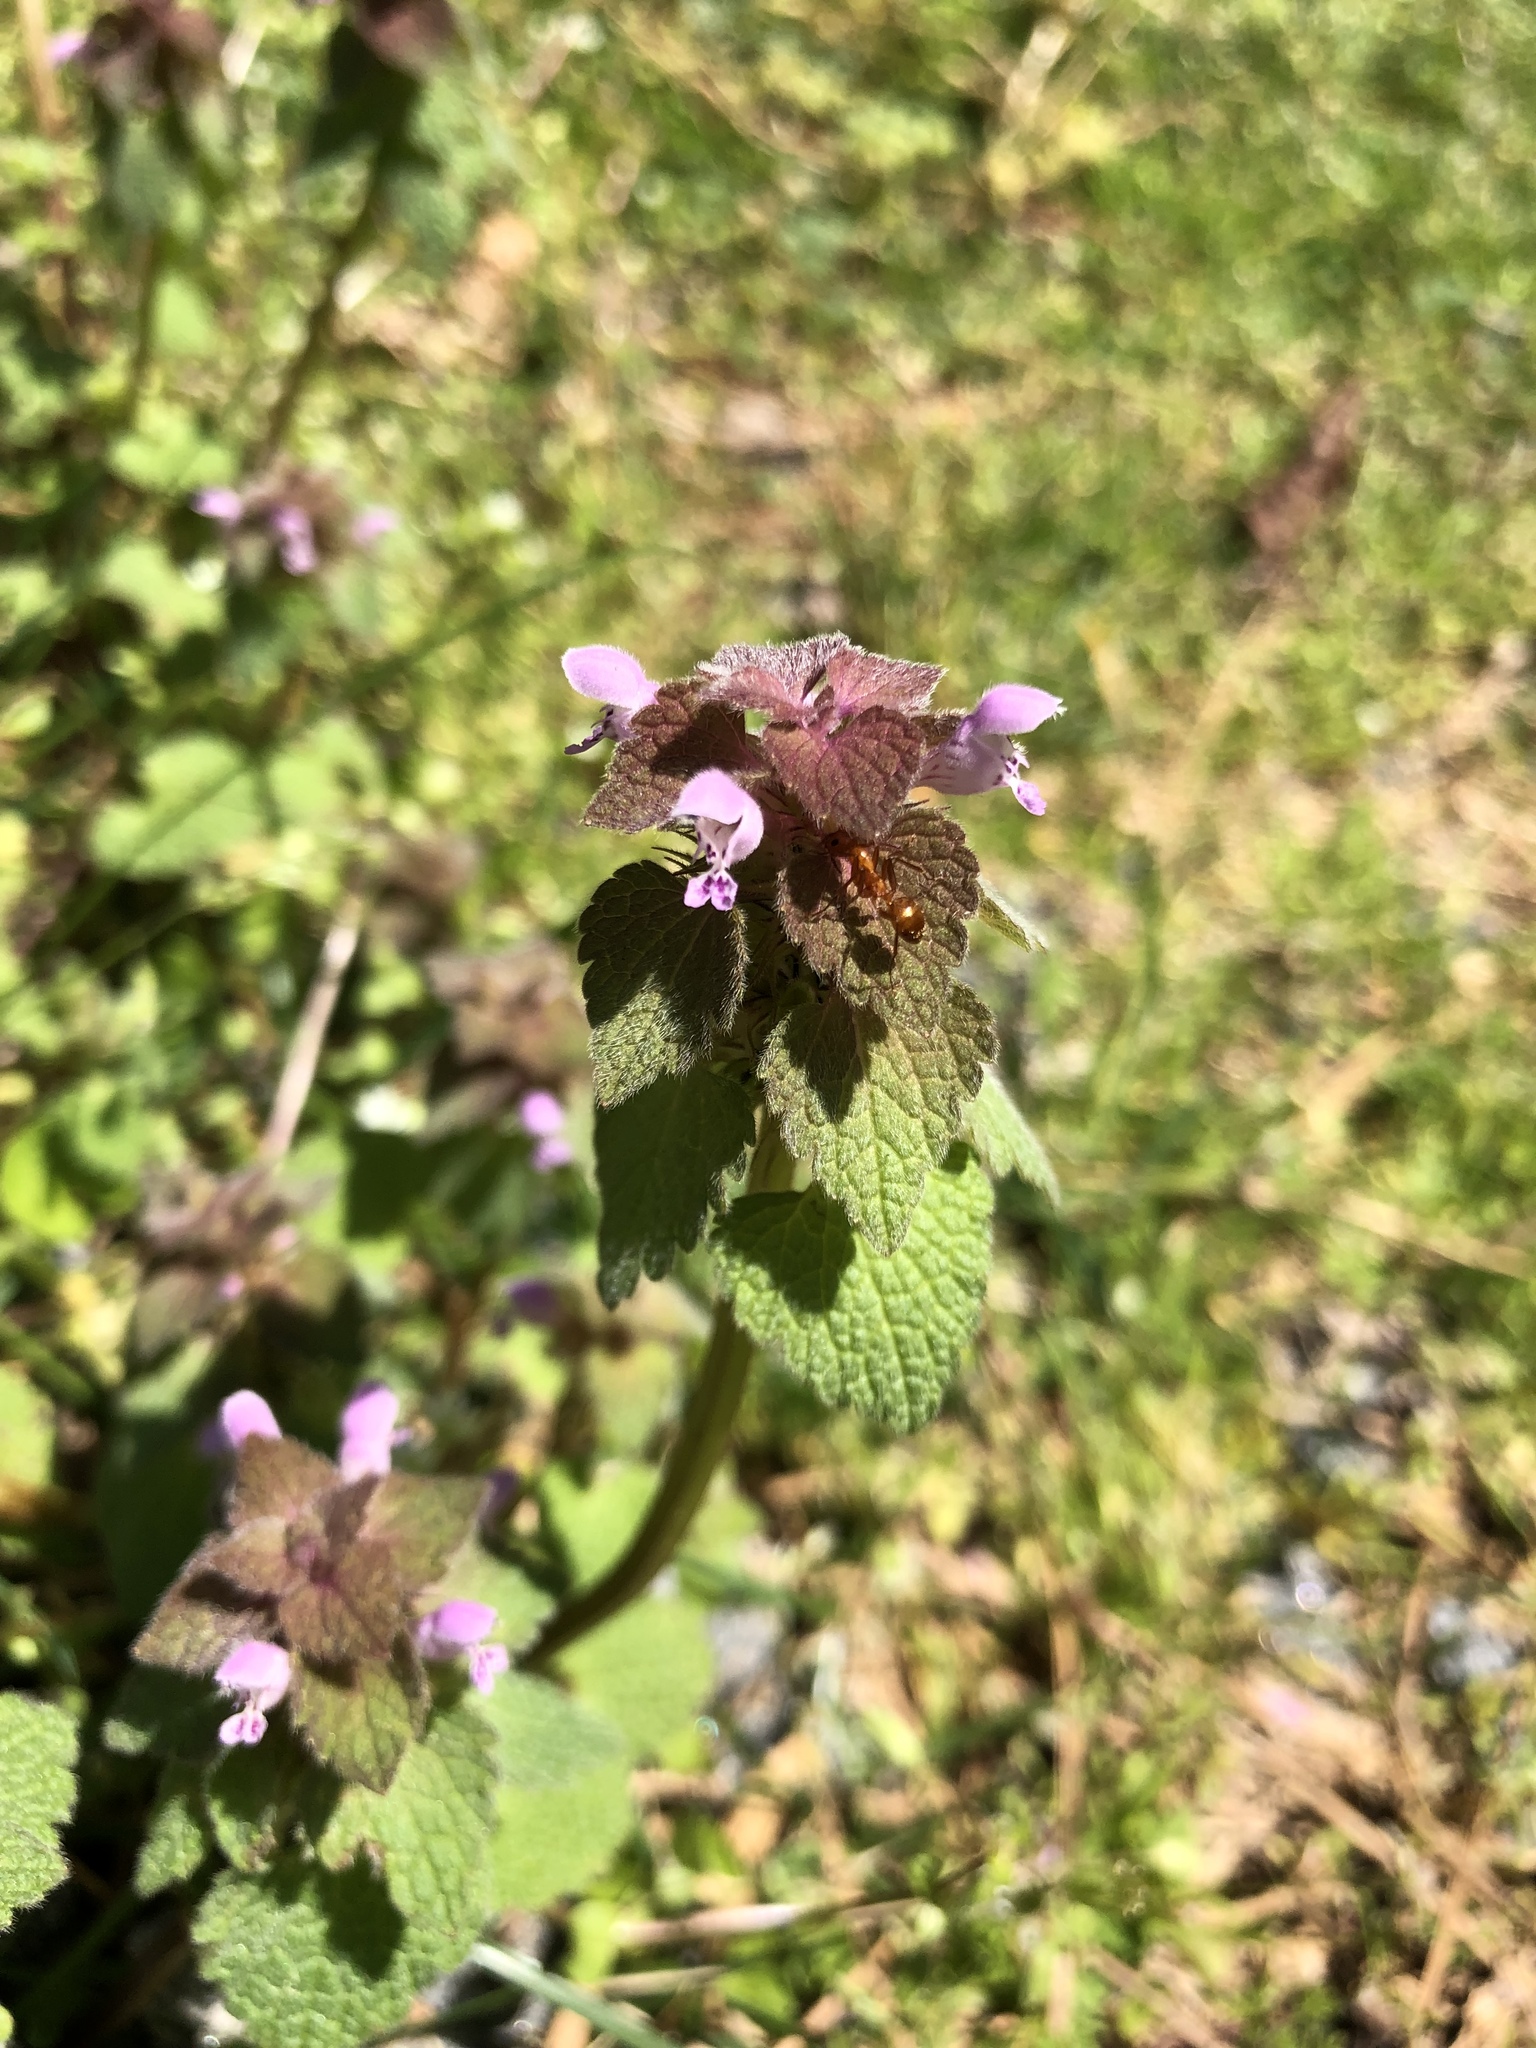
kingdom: Plantae
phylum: Tracheophyta
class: Magnoliopsida
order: Lamiales
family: Lamiaceae
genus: Lamium
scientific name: Lamium purpureum
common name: Red dead-nettle
